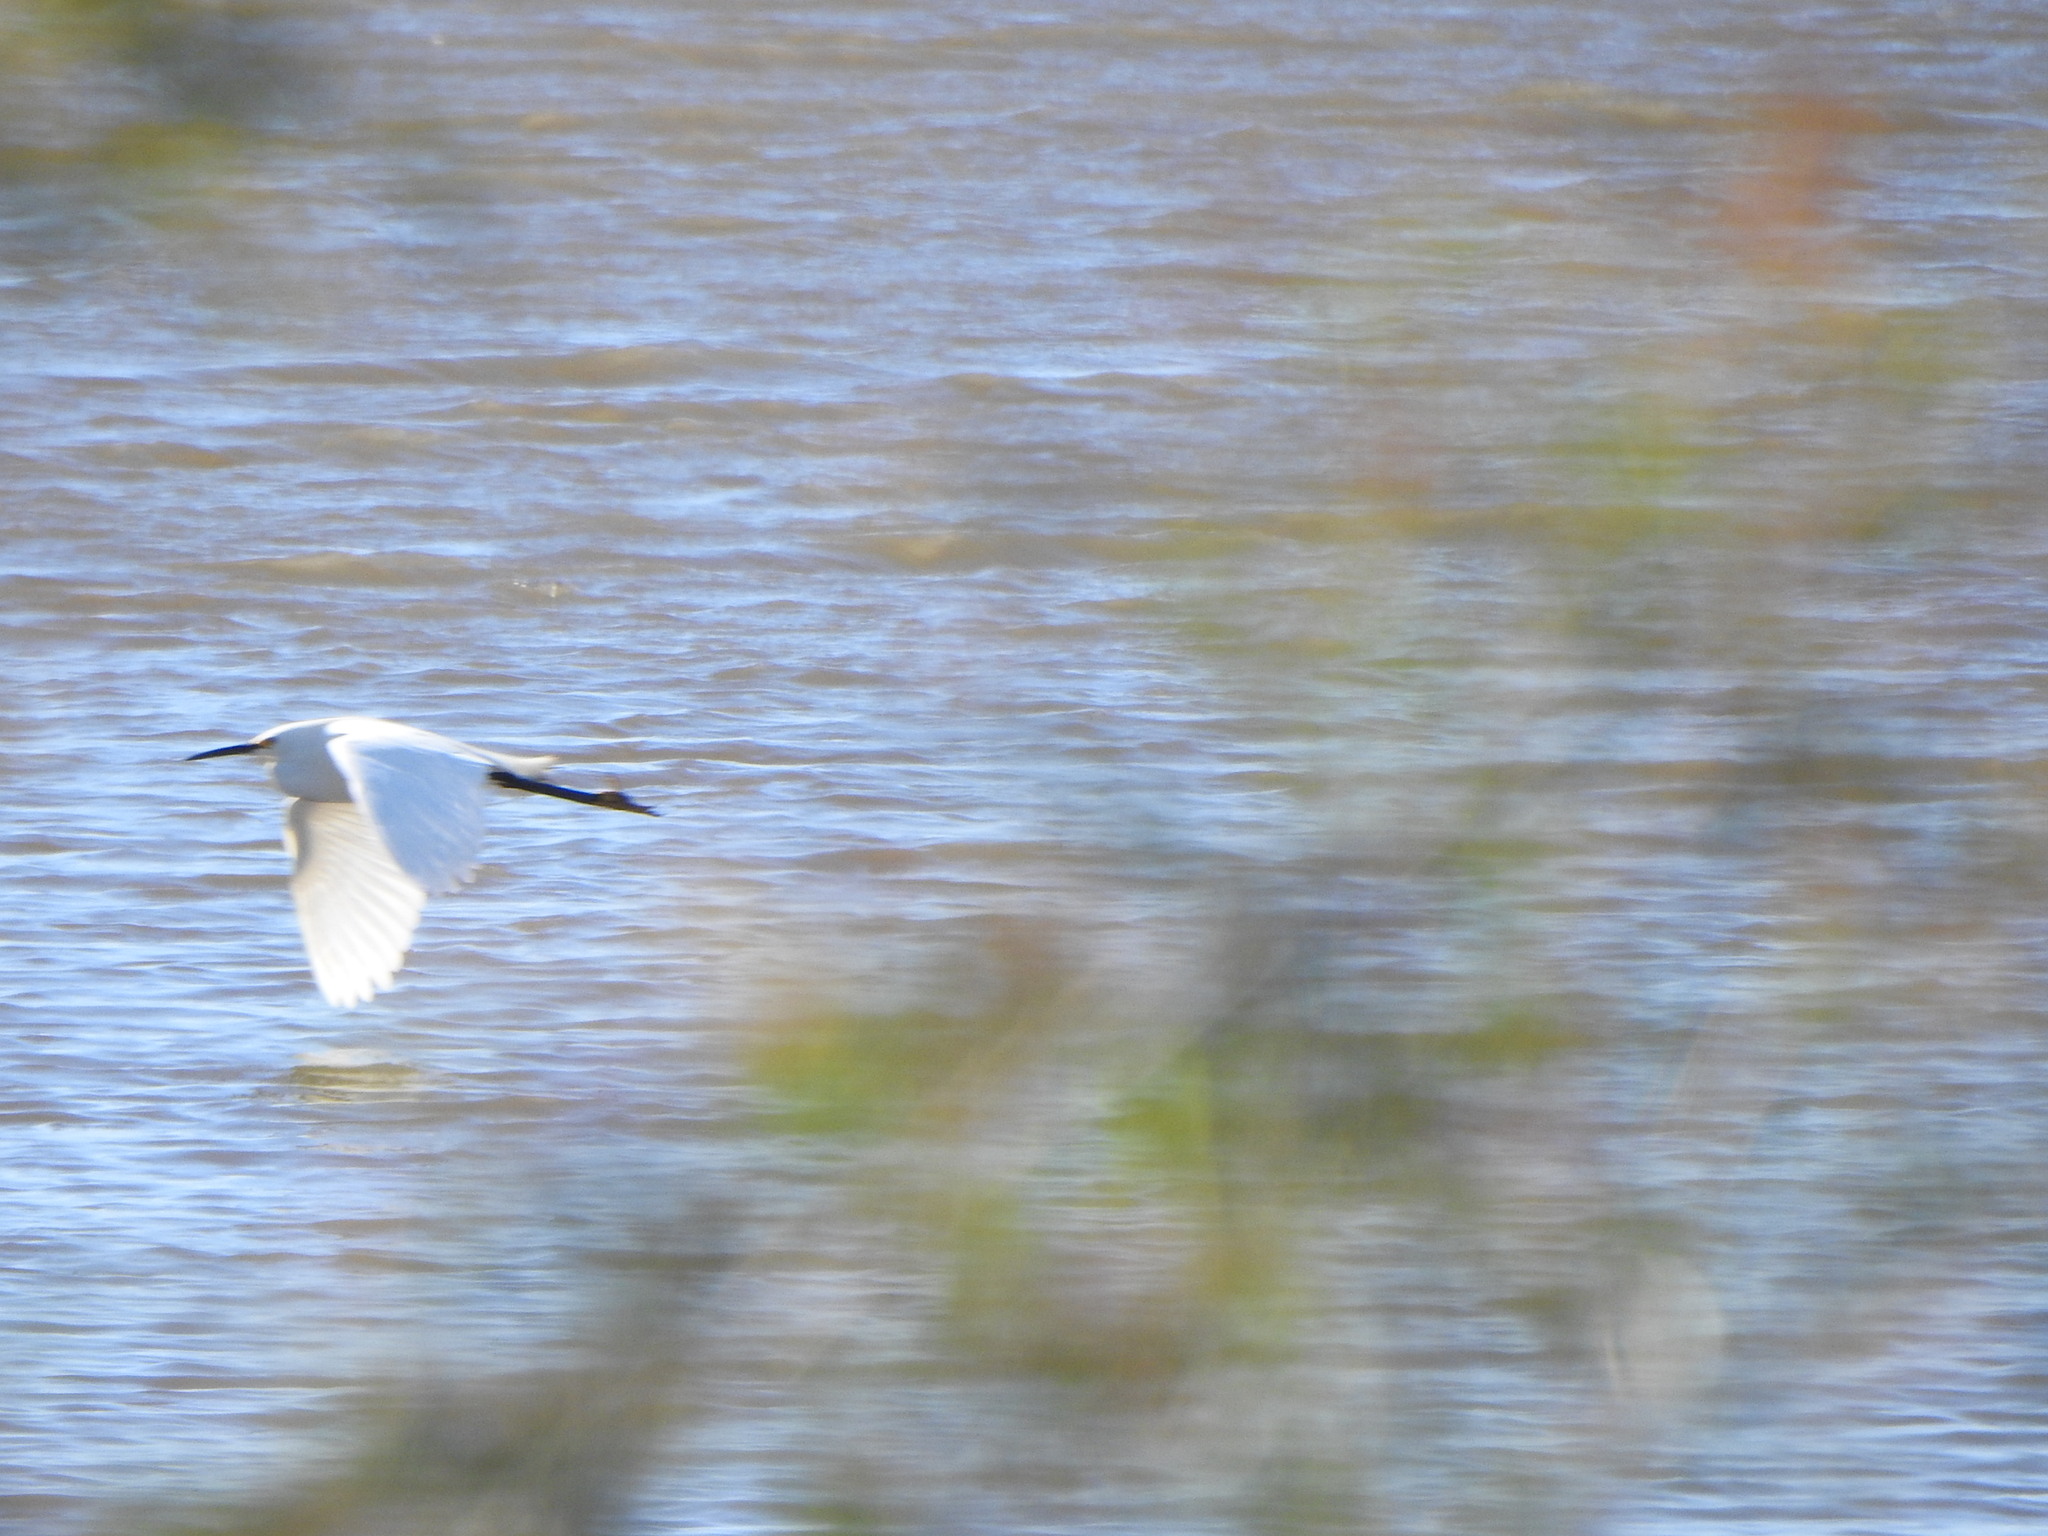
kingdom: Animalia
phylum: Chordata
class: Aves
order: Pelecaniformes
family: Ardeidae
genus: Egretta
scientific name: Egretta thula
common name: Snowy egret
